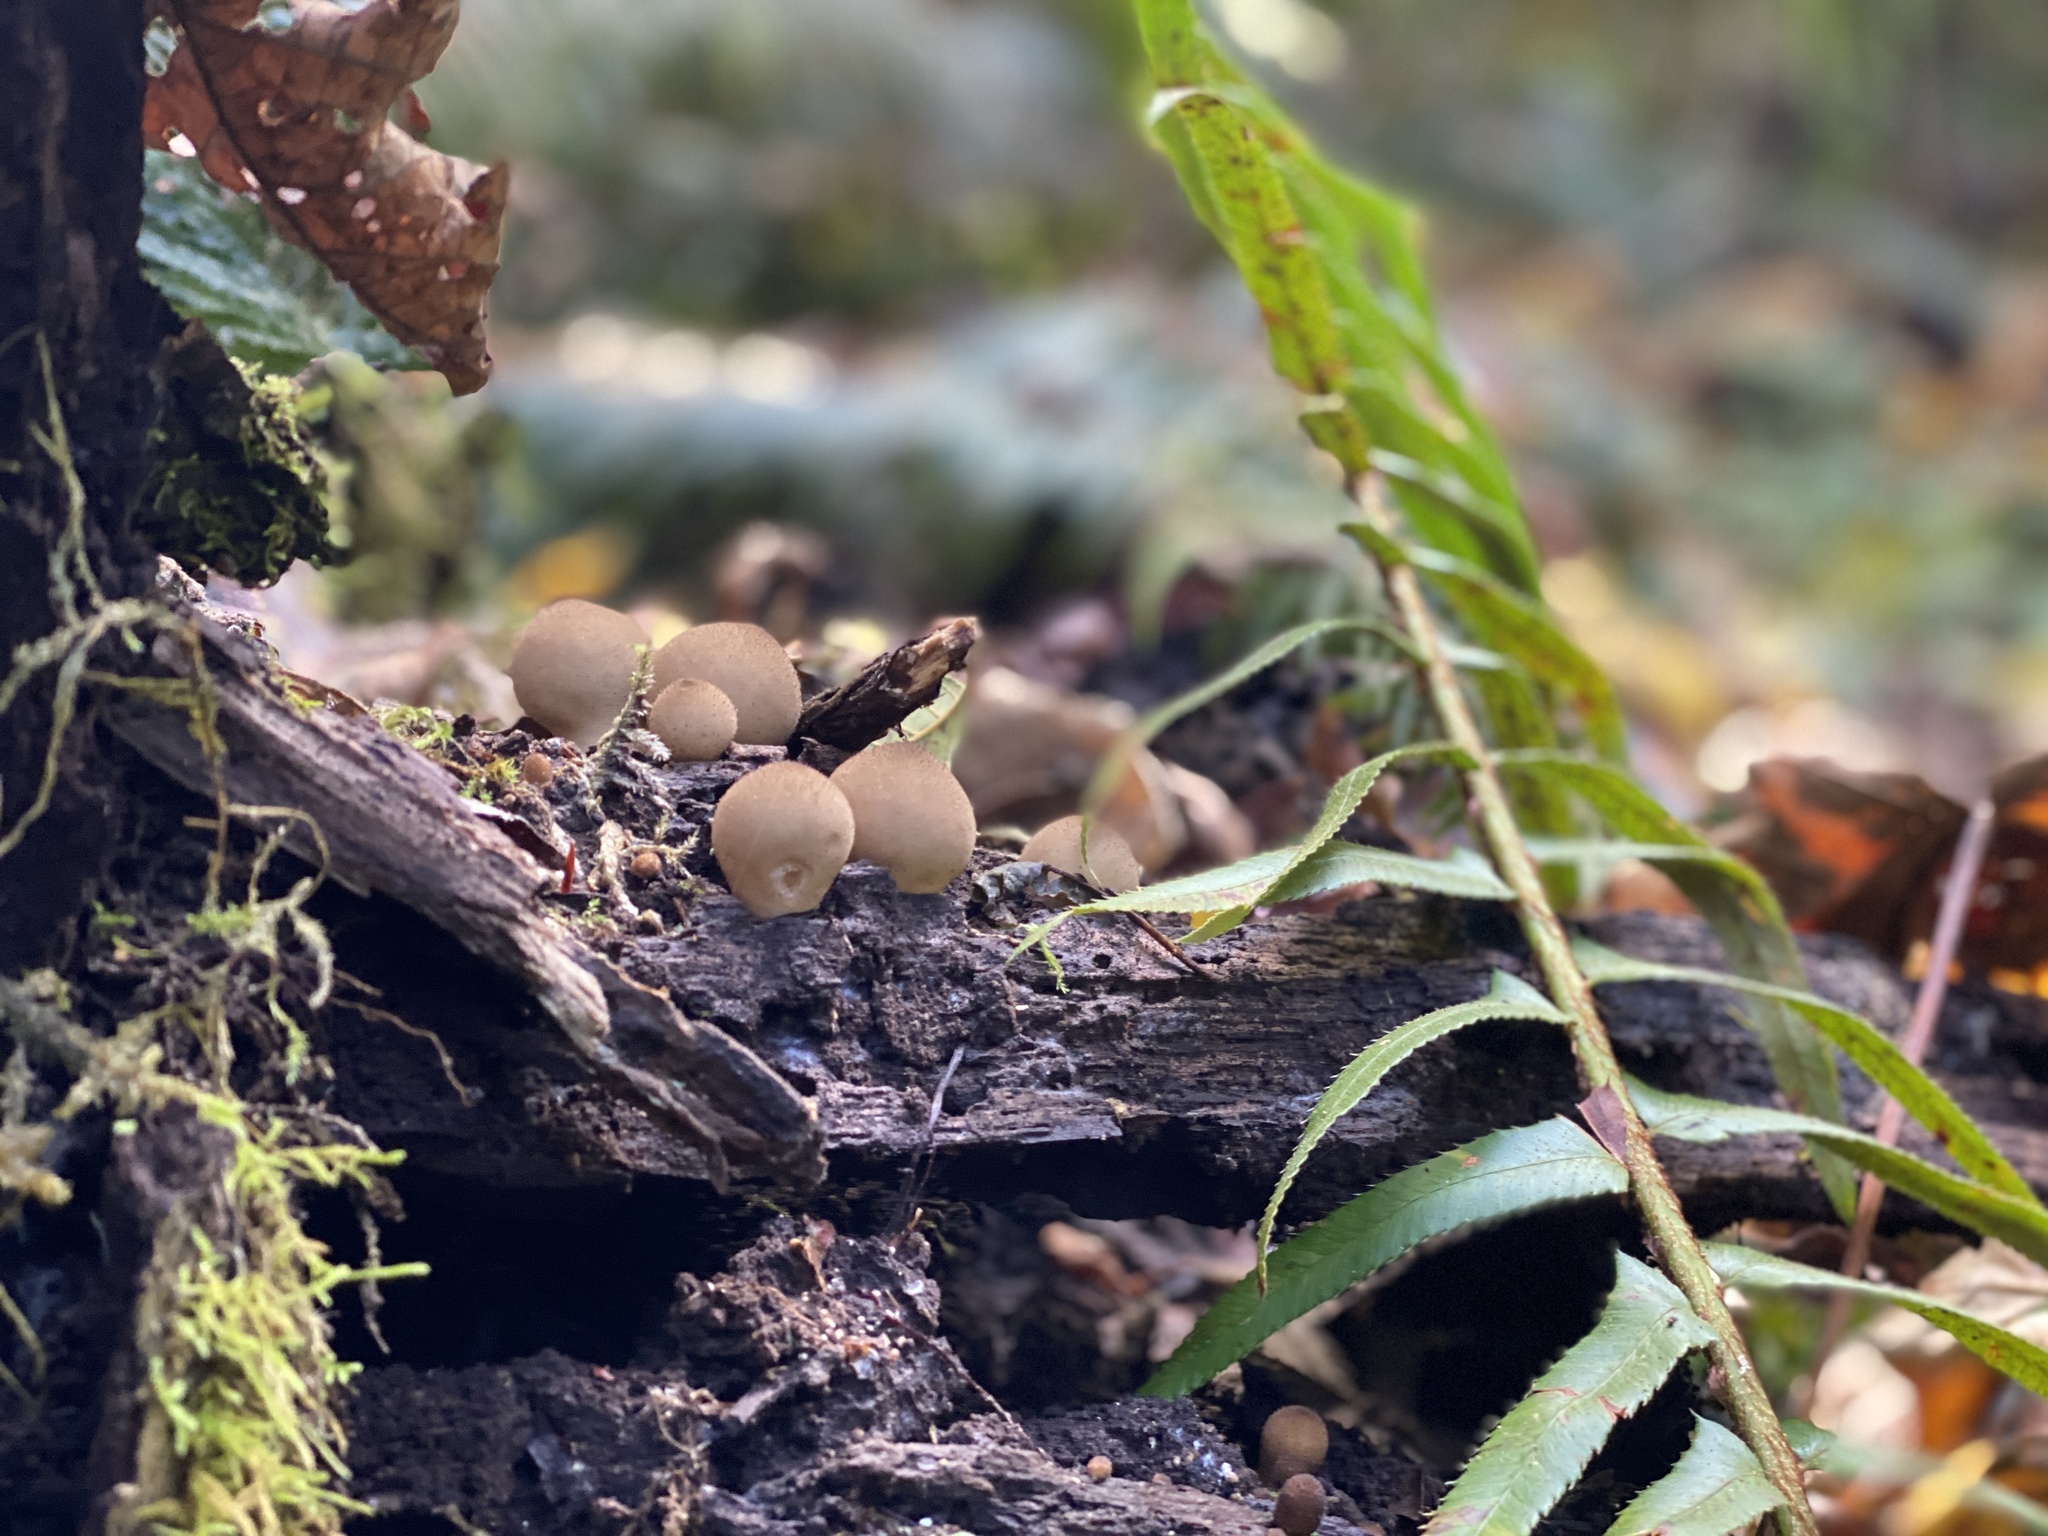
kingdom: Fungi
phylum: Basidiomycota
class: Agaricomycetes
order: Agaricales
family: Lycoperdaceae
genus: Apioperdon
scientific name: Apioperdon pyriforme
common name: Pear-shaped puffball
